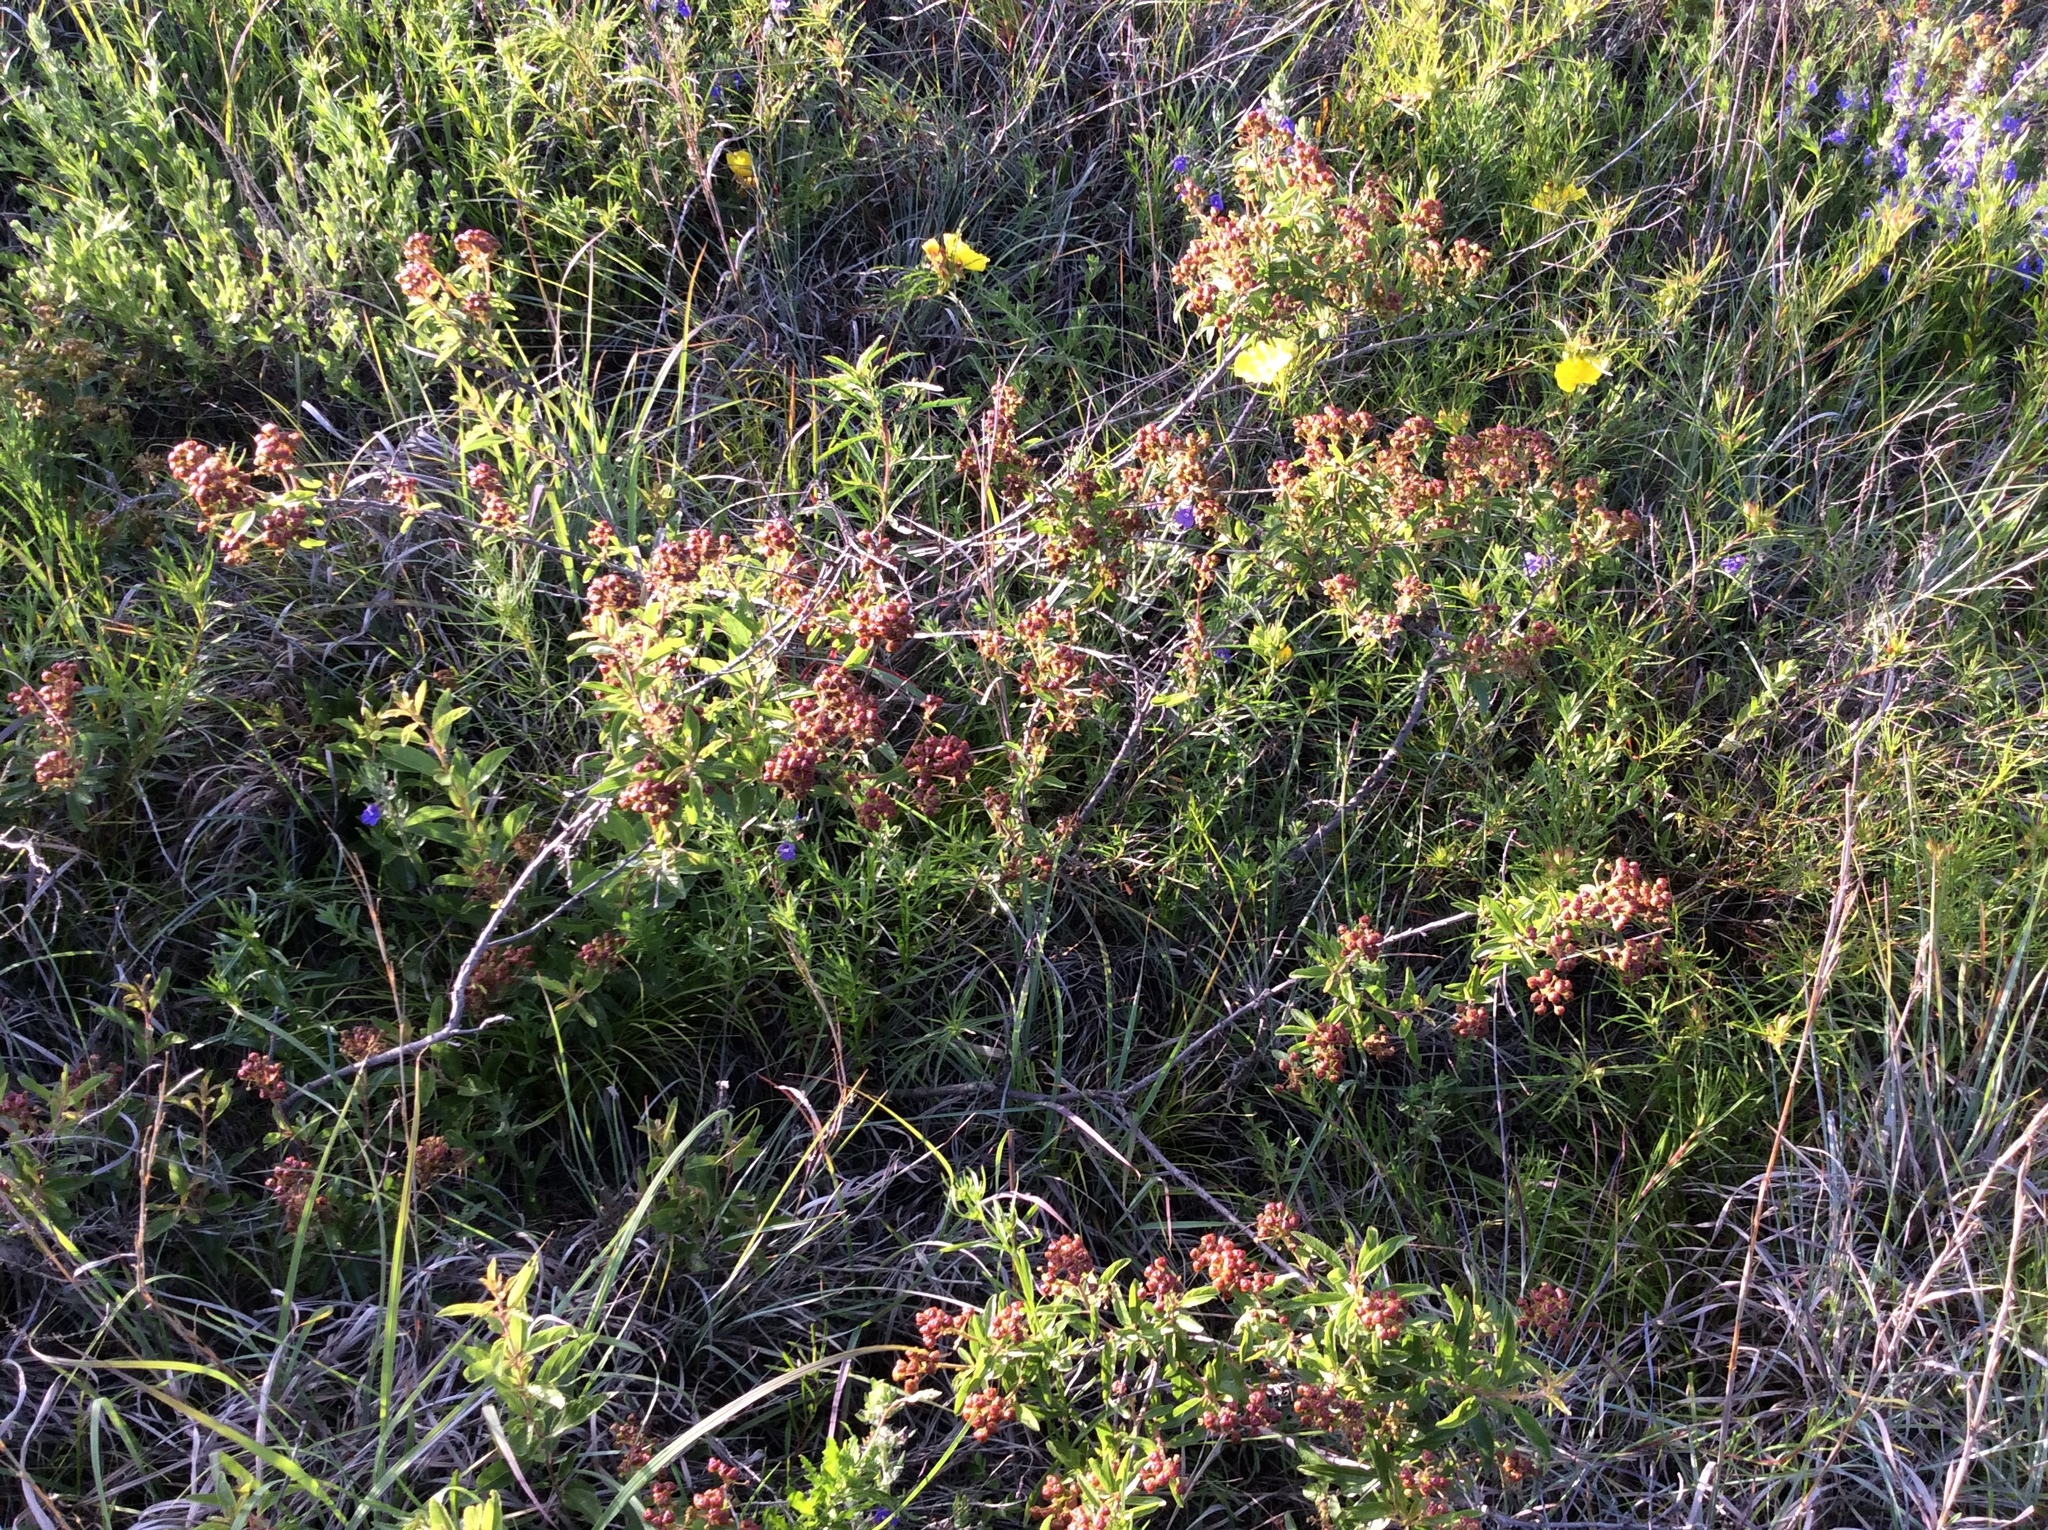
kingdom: Plantae
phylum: Tracheophyta
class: Magnoliopsida
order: Rosales
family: Rhamnaceae
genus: Ceanothus
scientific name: Ceanothus herbaceus
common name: Inland ceanothus
